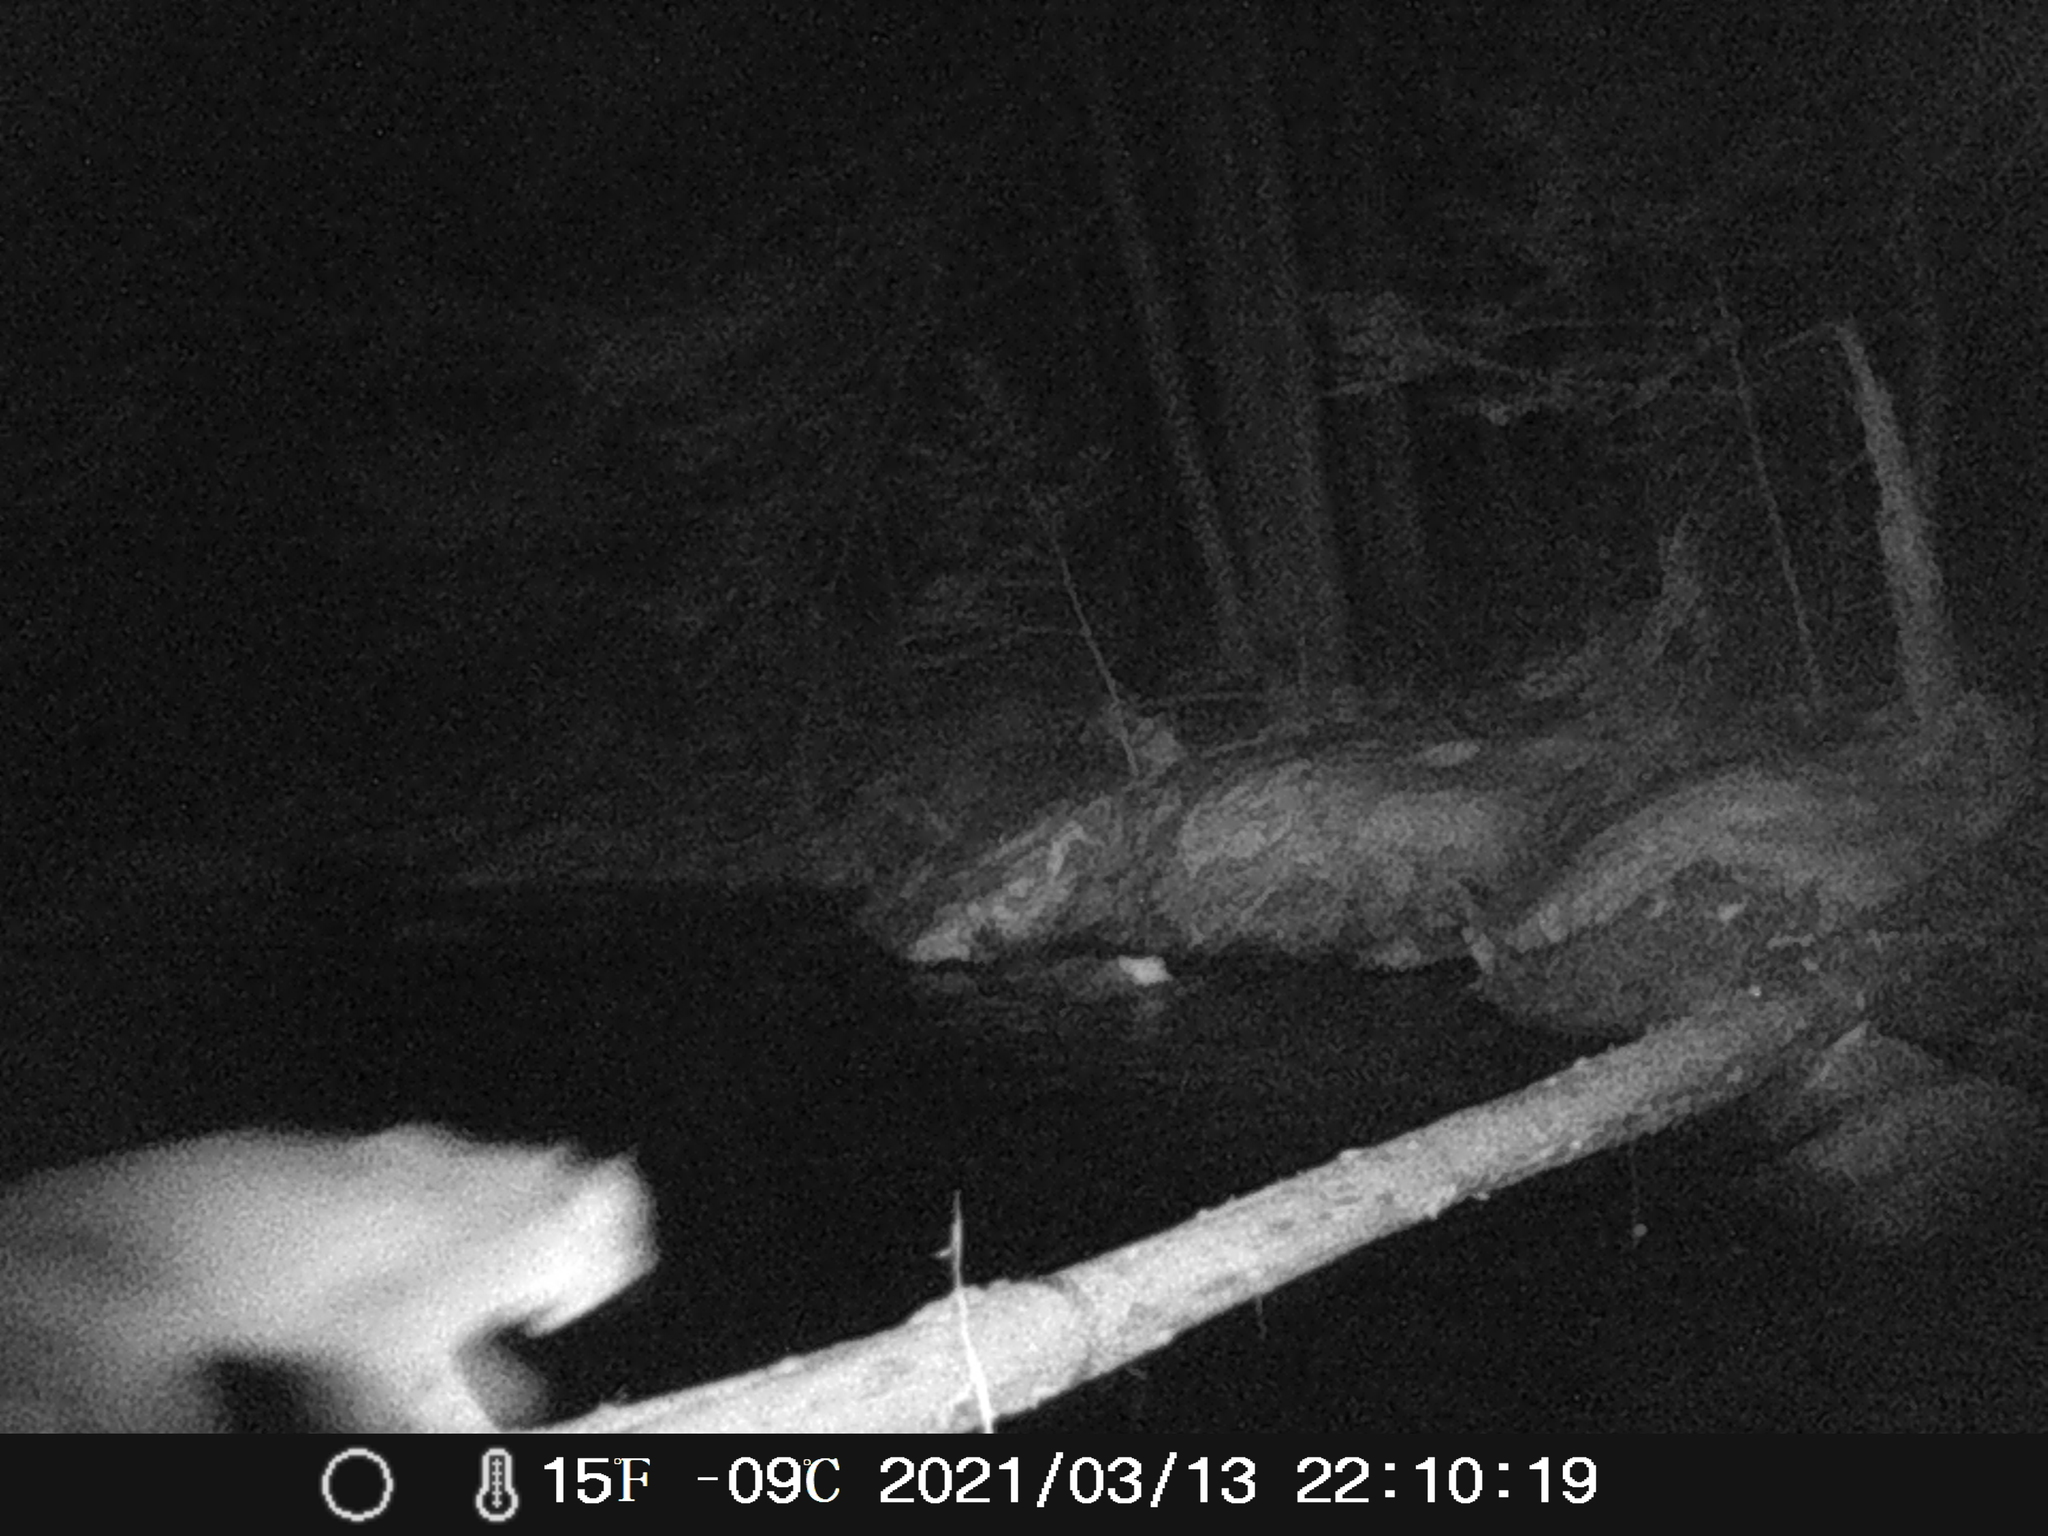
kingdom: Animalia
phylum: Chordata
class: Mammalia
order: Carnivora
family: Felidae
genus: Lynx
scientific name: Lynx rufus
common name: Bobcat
